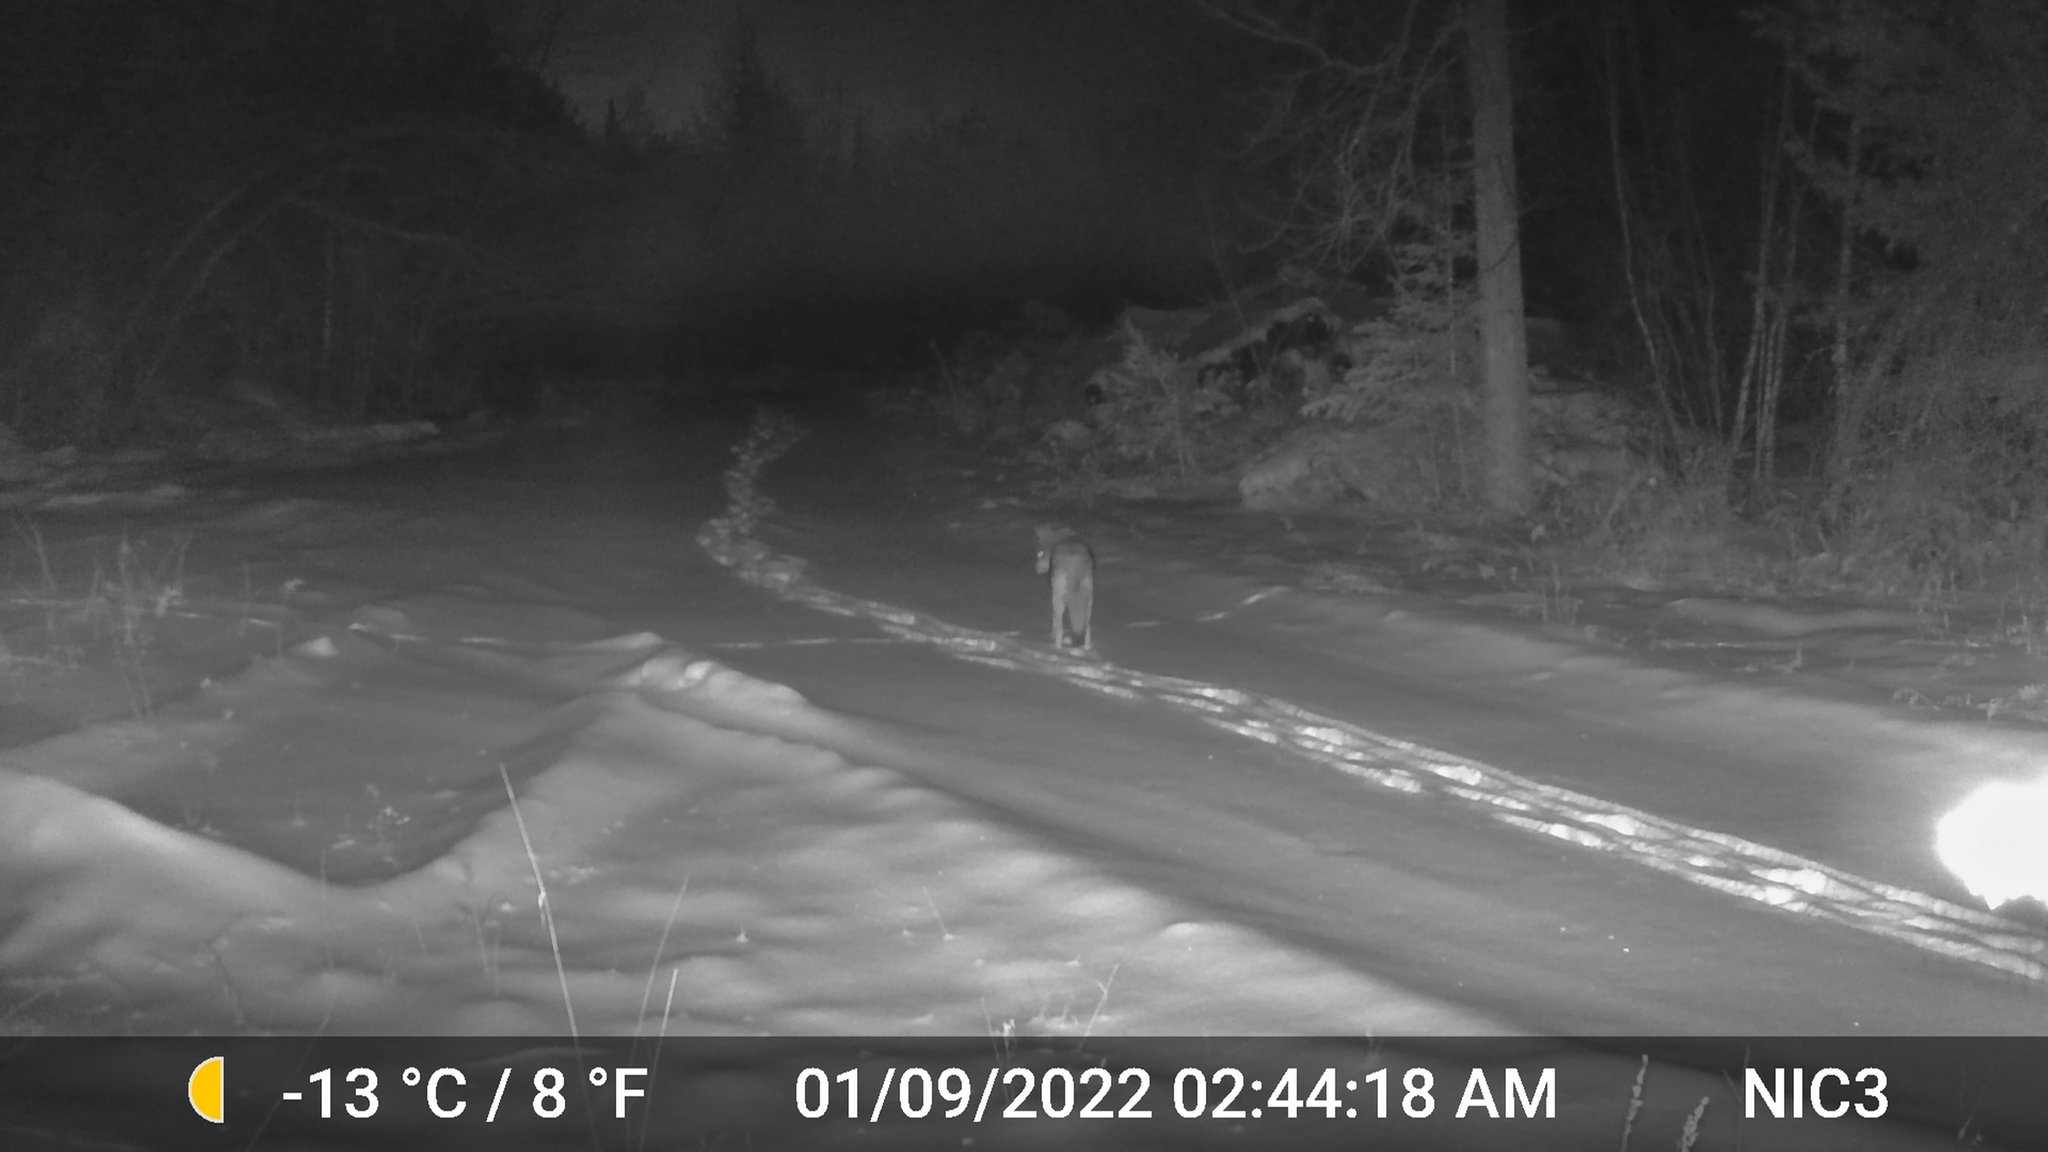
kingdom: Animalia
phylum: Chordata
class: Mammalia
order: Carnivora
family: Canidae
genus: Canis
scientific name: Canis latrans
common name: Coyote
